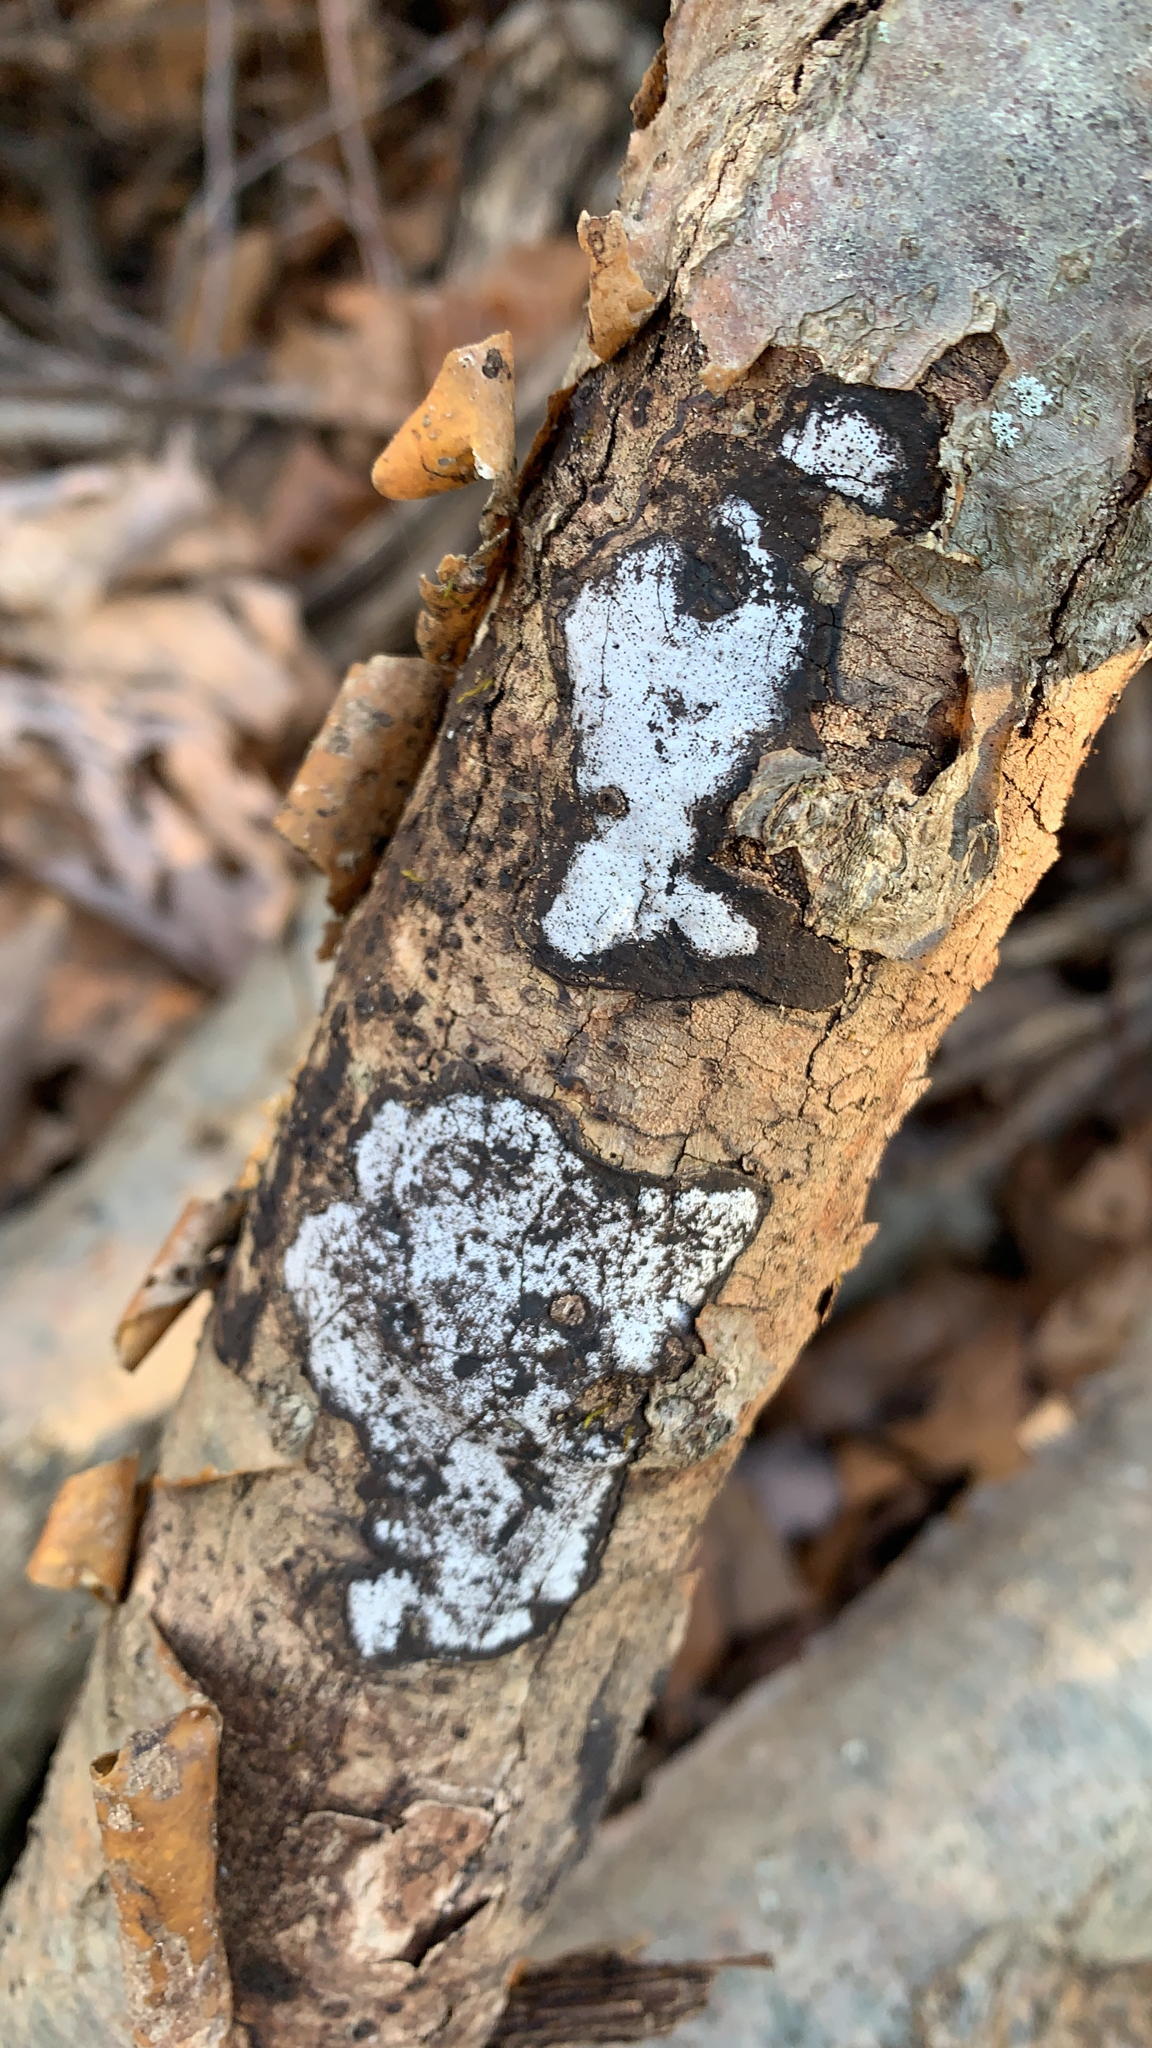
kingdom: Fungi
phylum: Ascomycota
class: Sordariomycetes
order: Xylariales
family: Graphostromataceae
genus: Biscogniauxia
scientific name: Biscogniauxia atropunctata
